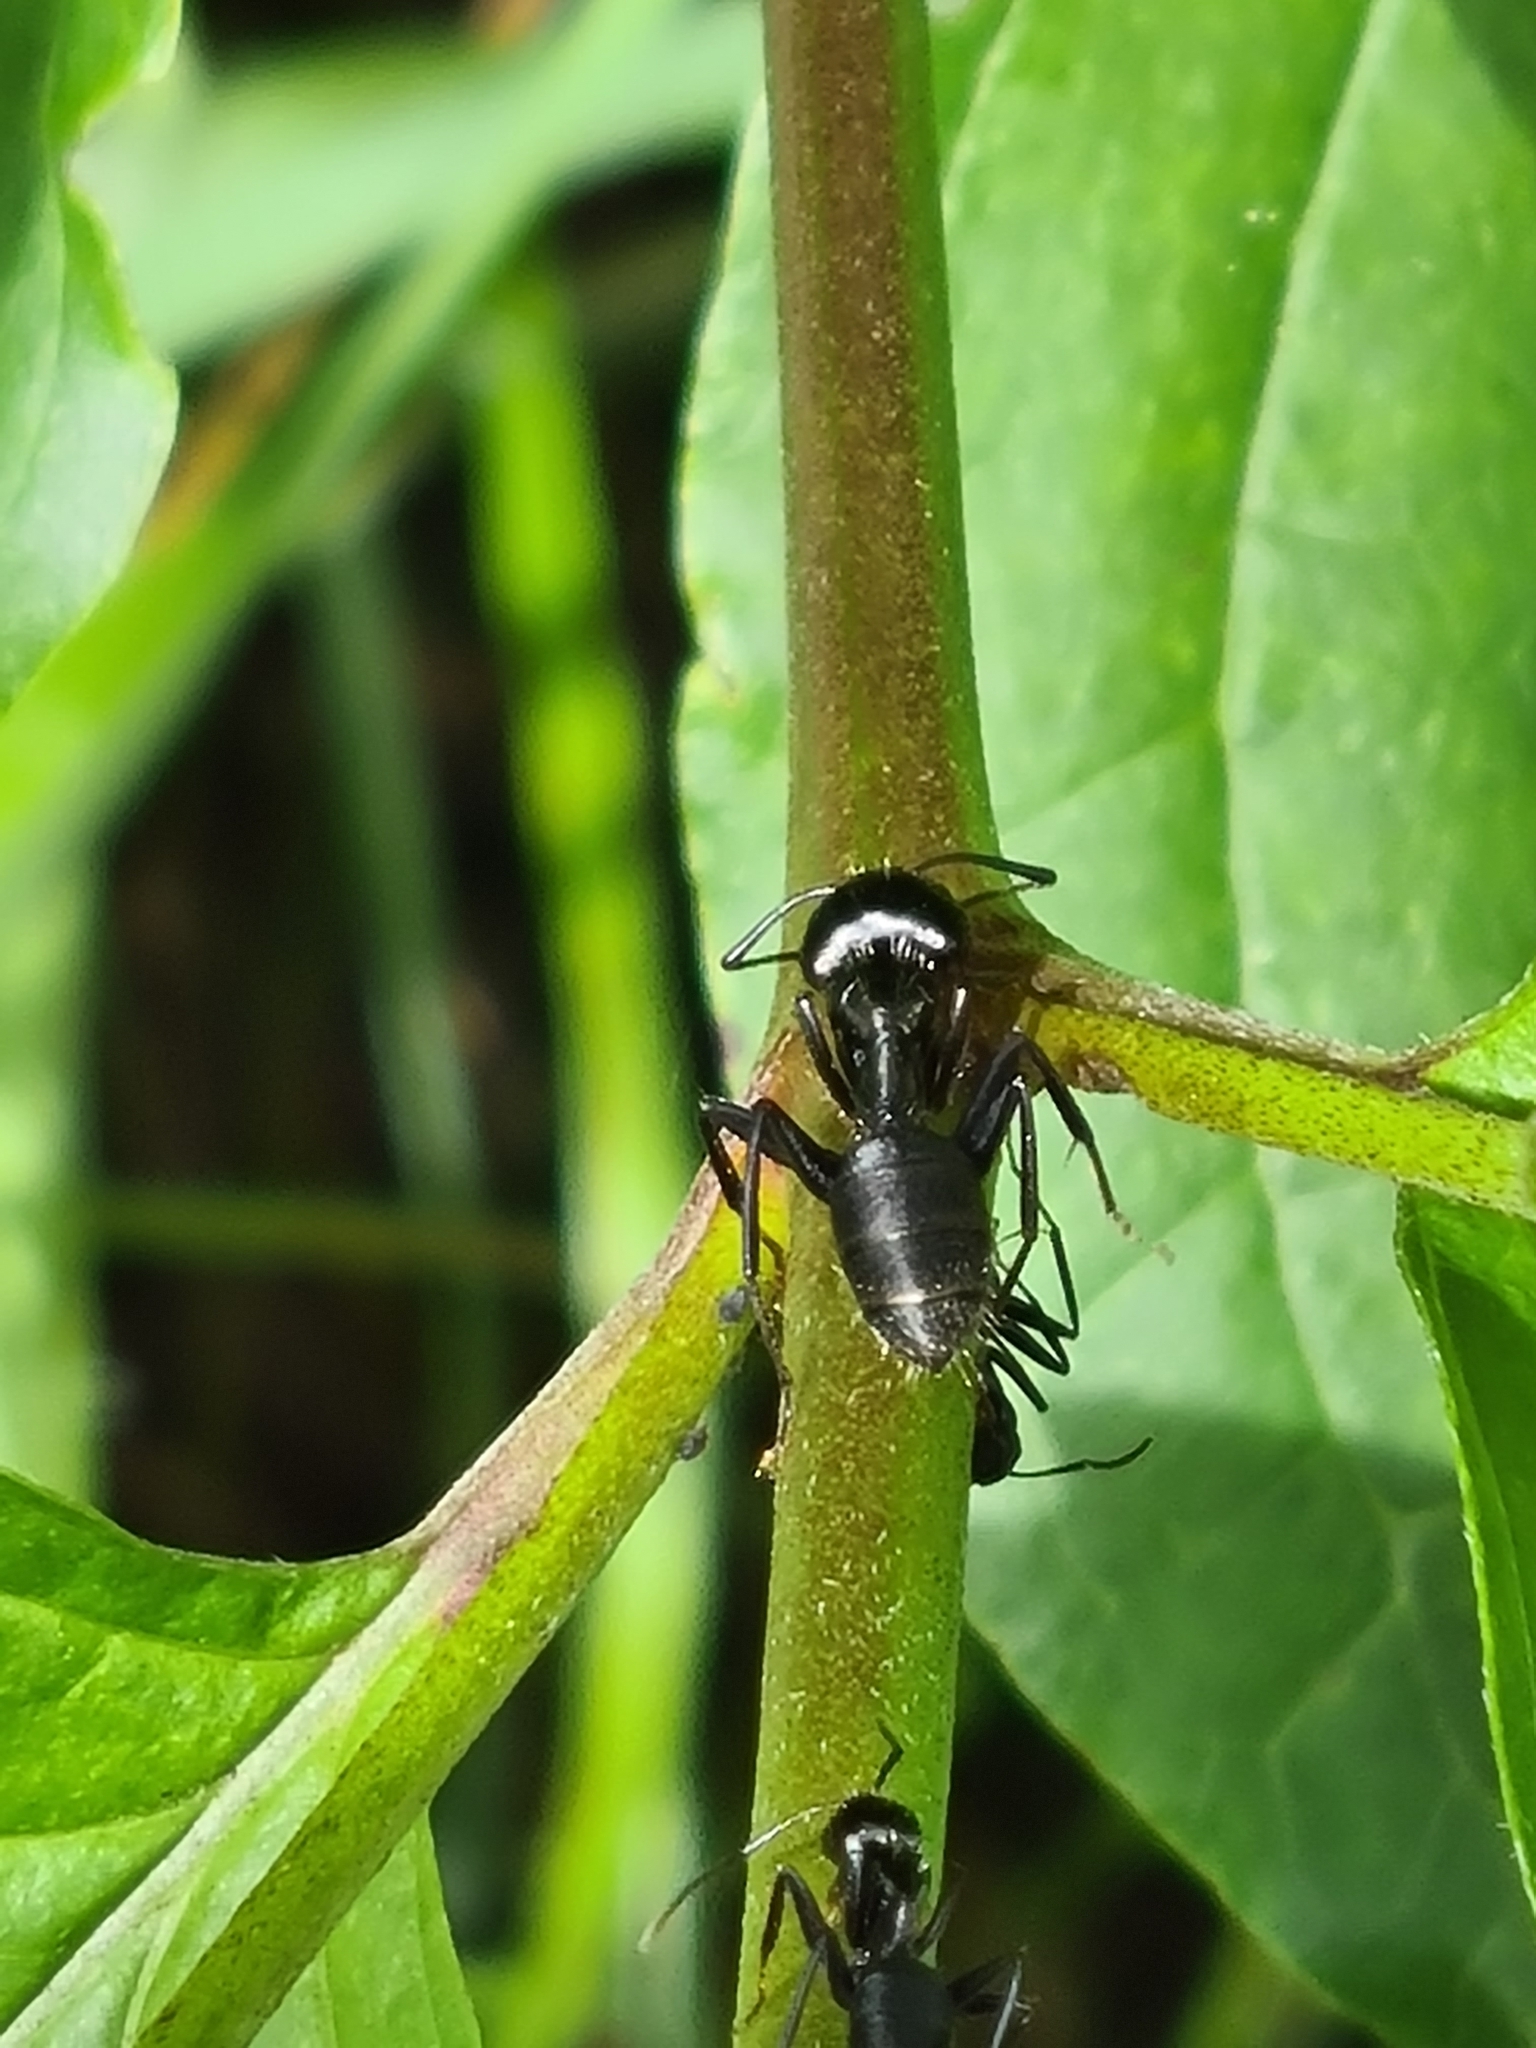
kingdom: Animalia
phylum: Arthropoda
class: Insecta
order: Hymenoptera
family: Formicidae
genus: Camponotus
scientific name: Camponotus vagus
